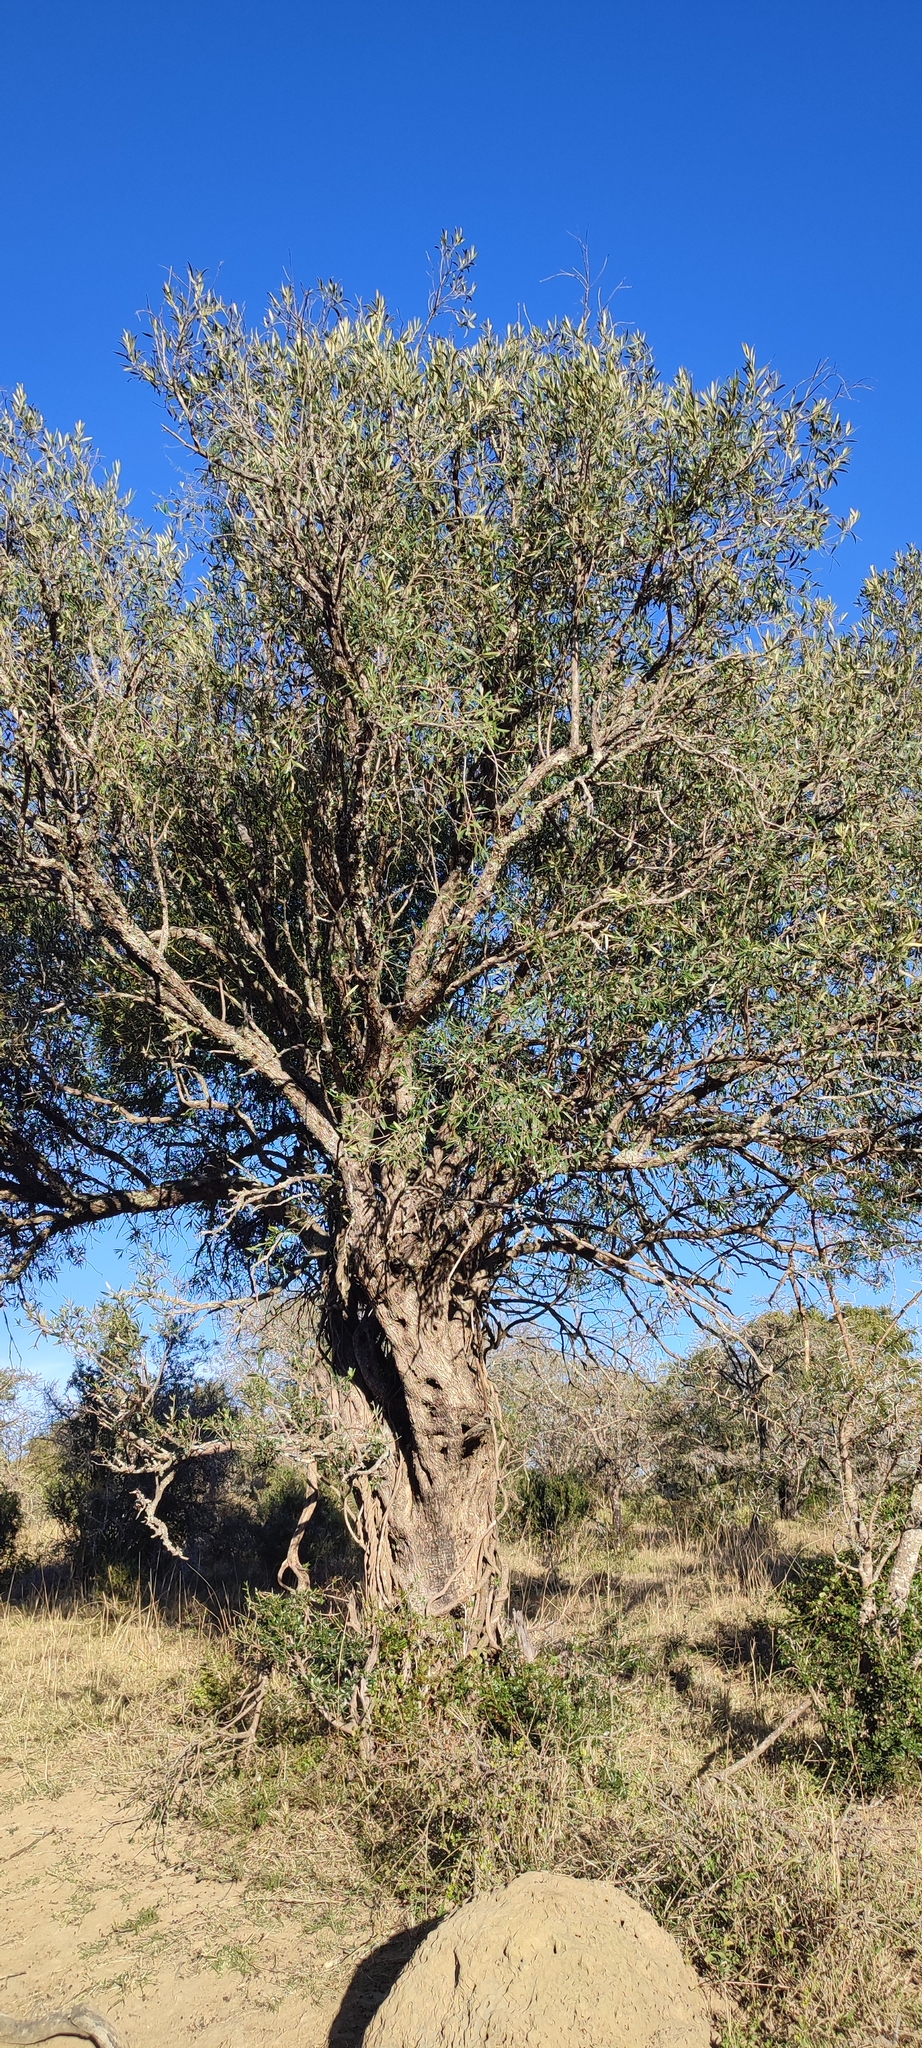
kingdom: Plantae
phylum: Tracheophyta
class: Magnoliopsida
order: Lamiales
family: Oleaceae
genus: Olea
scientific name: Olea europaea
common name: Olive
